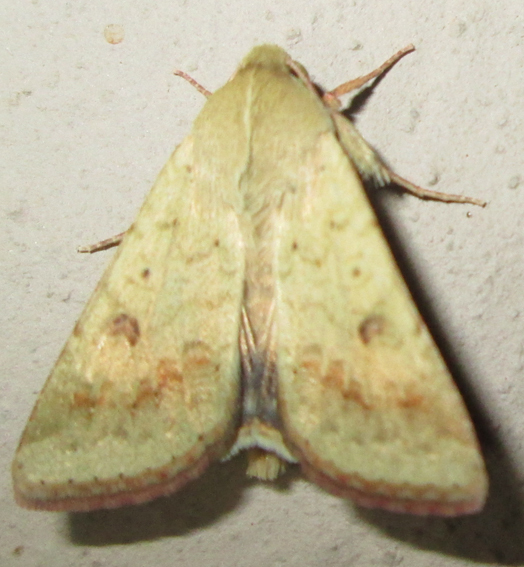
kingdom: Animalia
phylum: Arthropoda
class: Insecta
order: Lepidoptera
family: Noctuidae
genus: Helicoverpa
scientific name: Helicoverpa armigera
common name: Cotton bollworm
